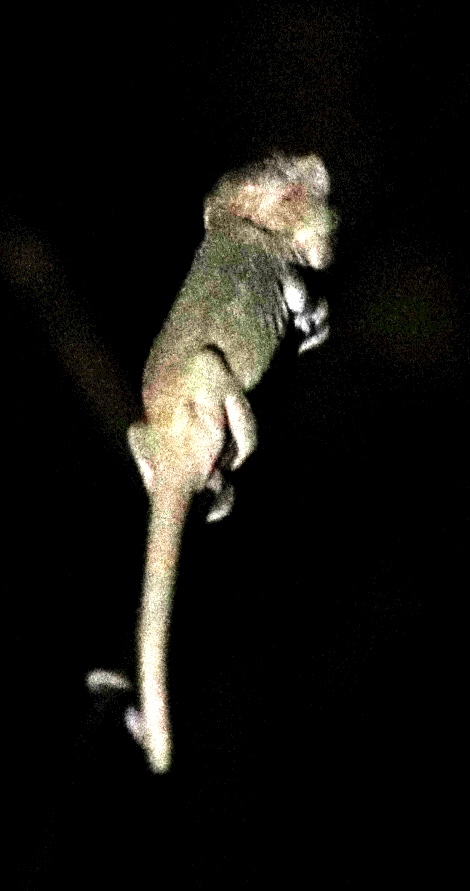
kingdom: Animalia
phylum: Chordata
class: Squamata
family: Chamaeleonidae
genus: Bradypodion
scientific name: Bradypodion pumilum
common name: Cape dwarf chameleon
